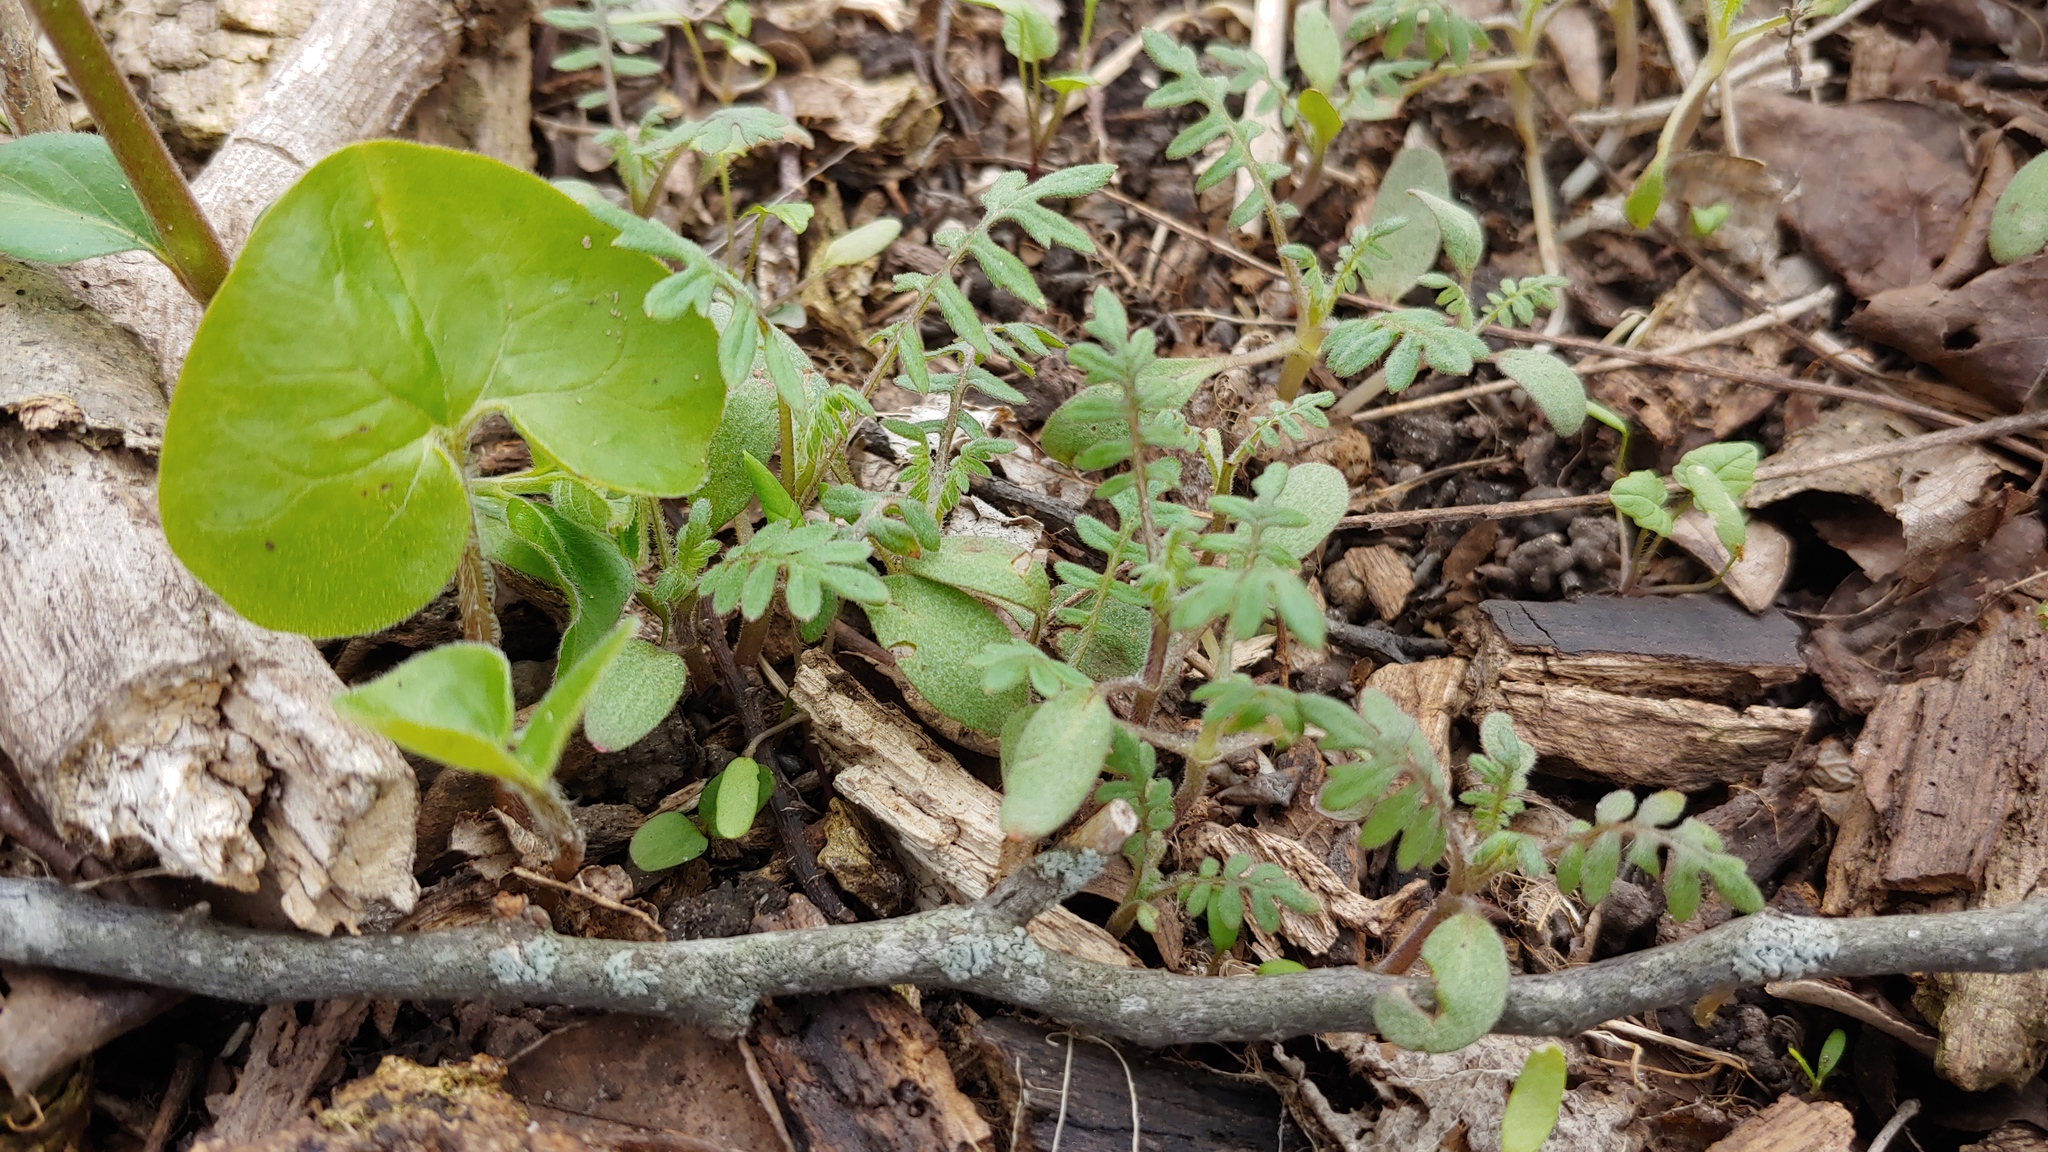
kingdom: Plantae
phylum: Tracheophyta
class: Magnoliopsida
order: Boraginales
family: Hydrophyllaceae
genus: Ellisia
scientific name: Ellisia nyctelea
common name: Aunt lucy
